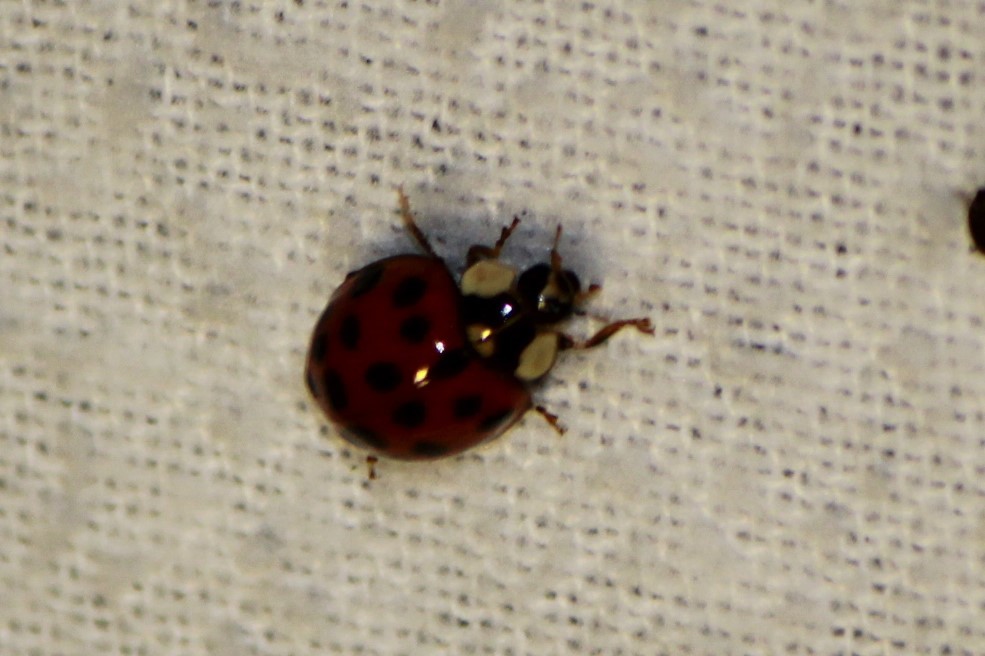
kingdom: Animalia
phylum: Arthropoda
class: Insecta
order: Coleoptera
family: Coccinellidae
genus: Harmonia
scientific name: Harmonia axyridis
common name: Harlequin ladybird
